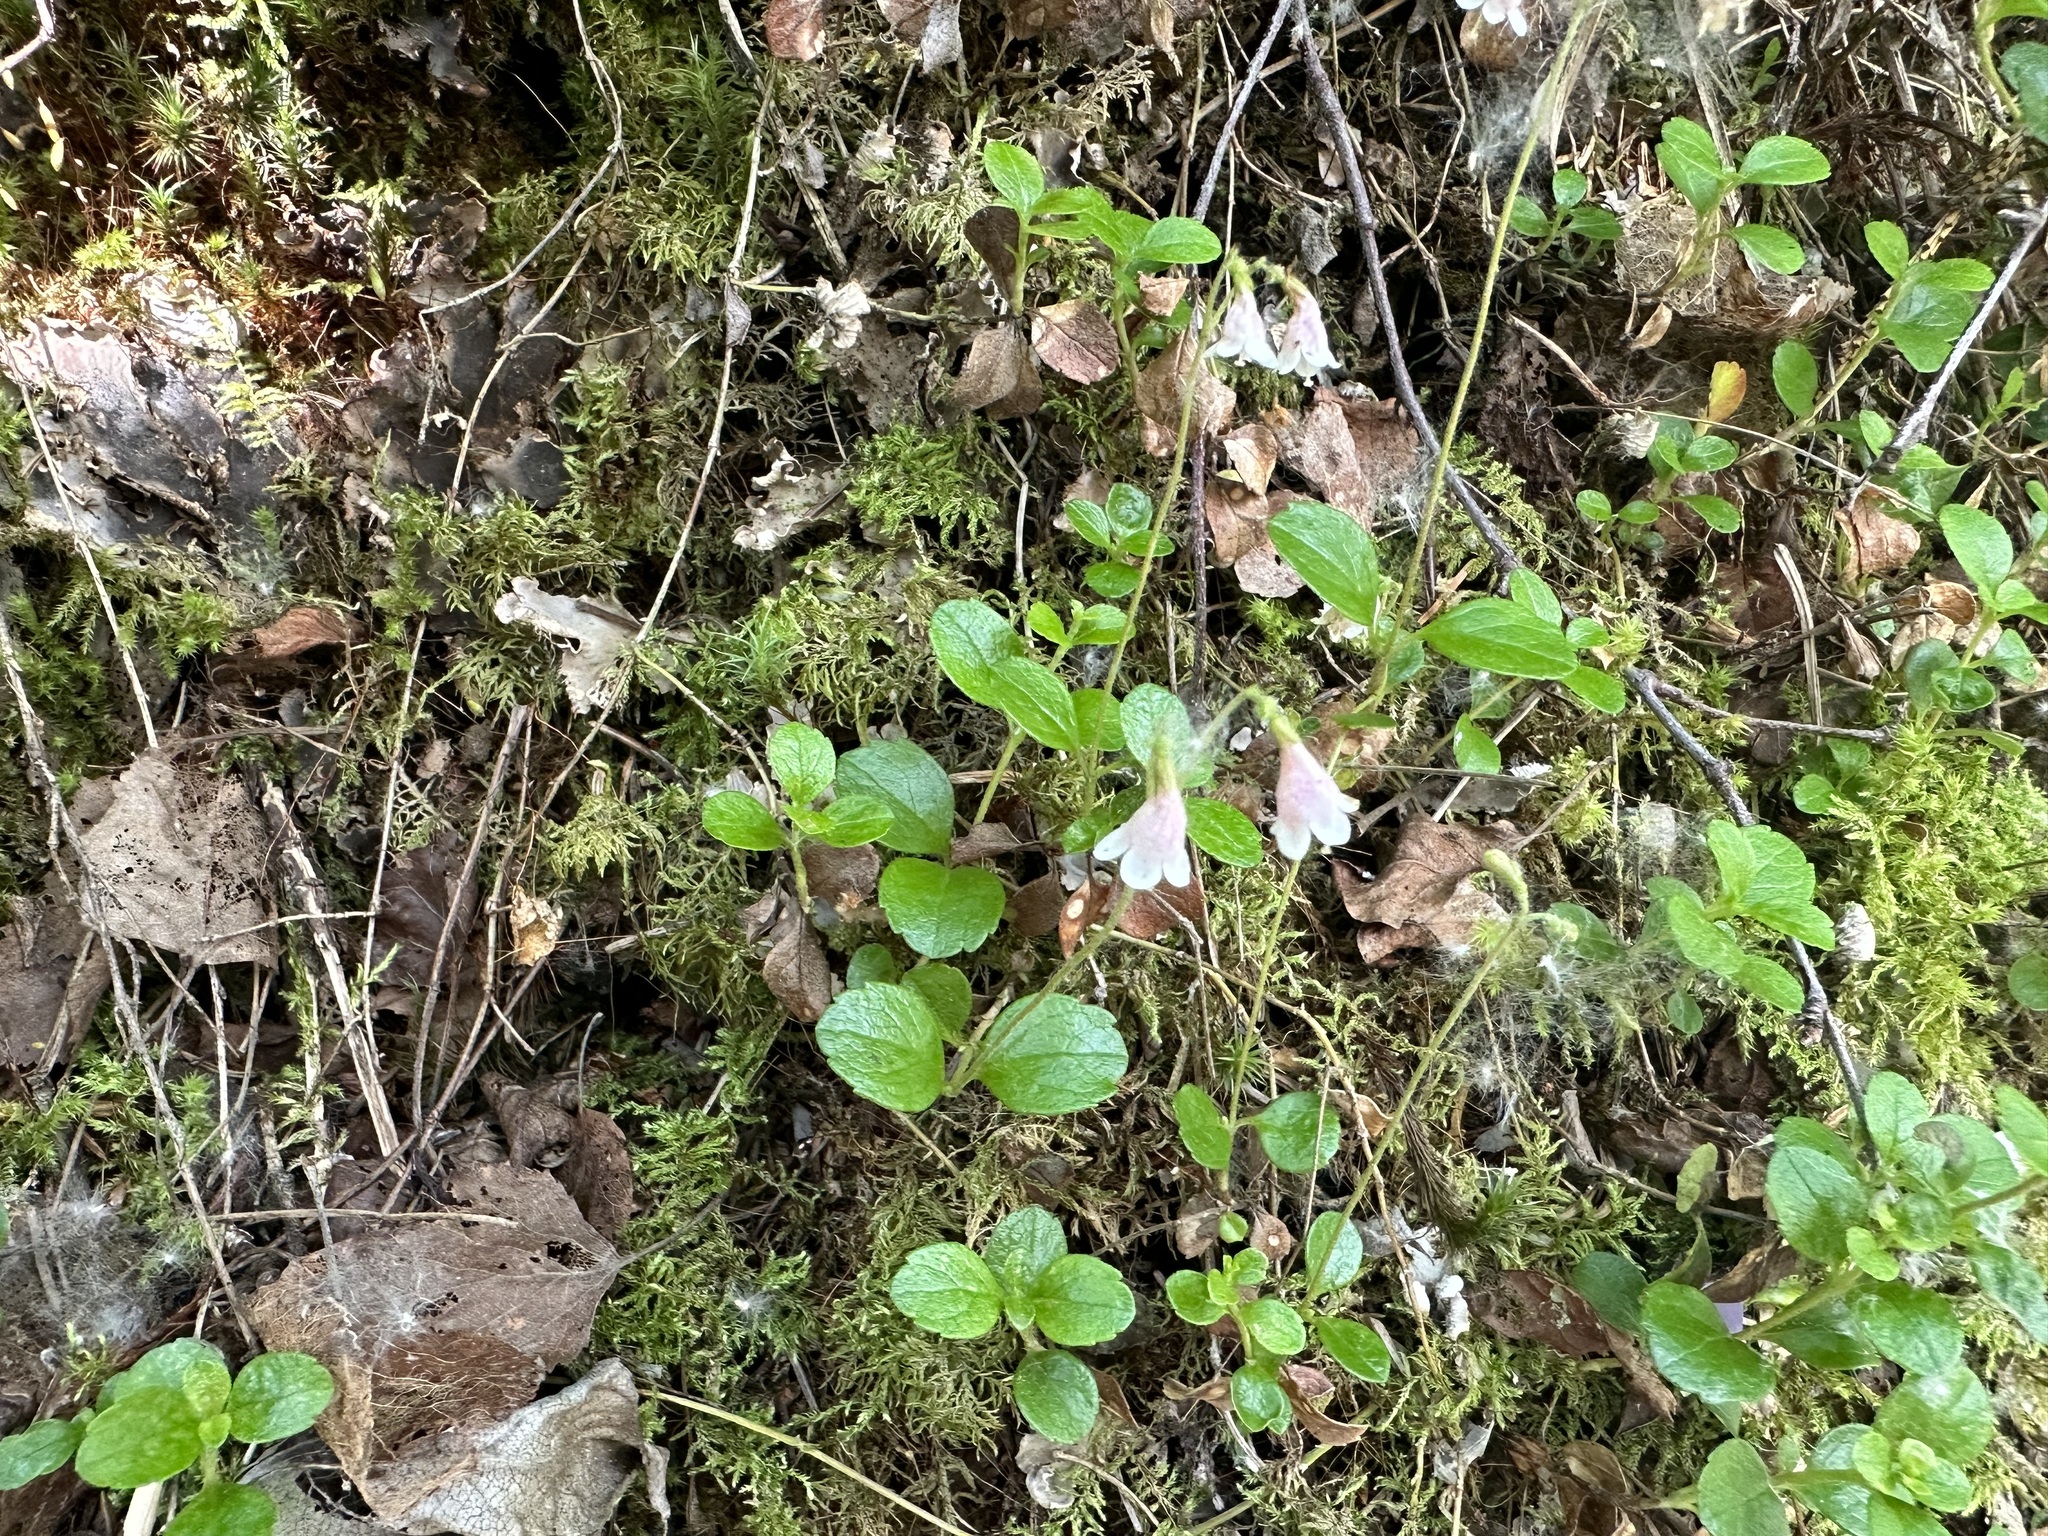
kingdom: Plantae
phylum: Tracheophyta
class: Magnoliopsida
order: Dipsacales
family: Caprifoliaceae
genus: Linnaea
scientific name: Linnaea borealis
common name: Twinflower
